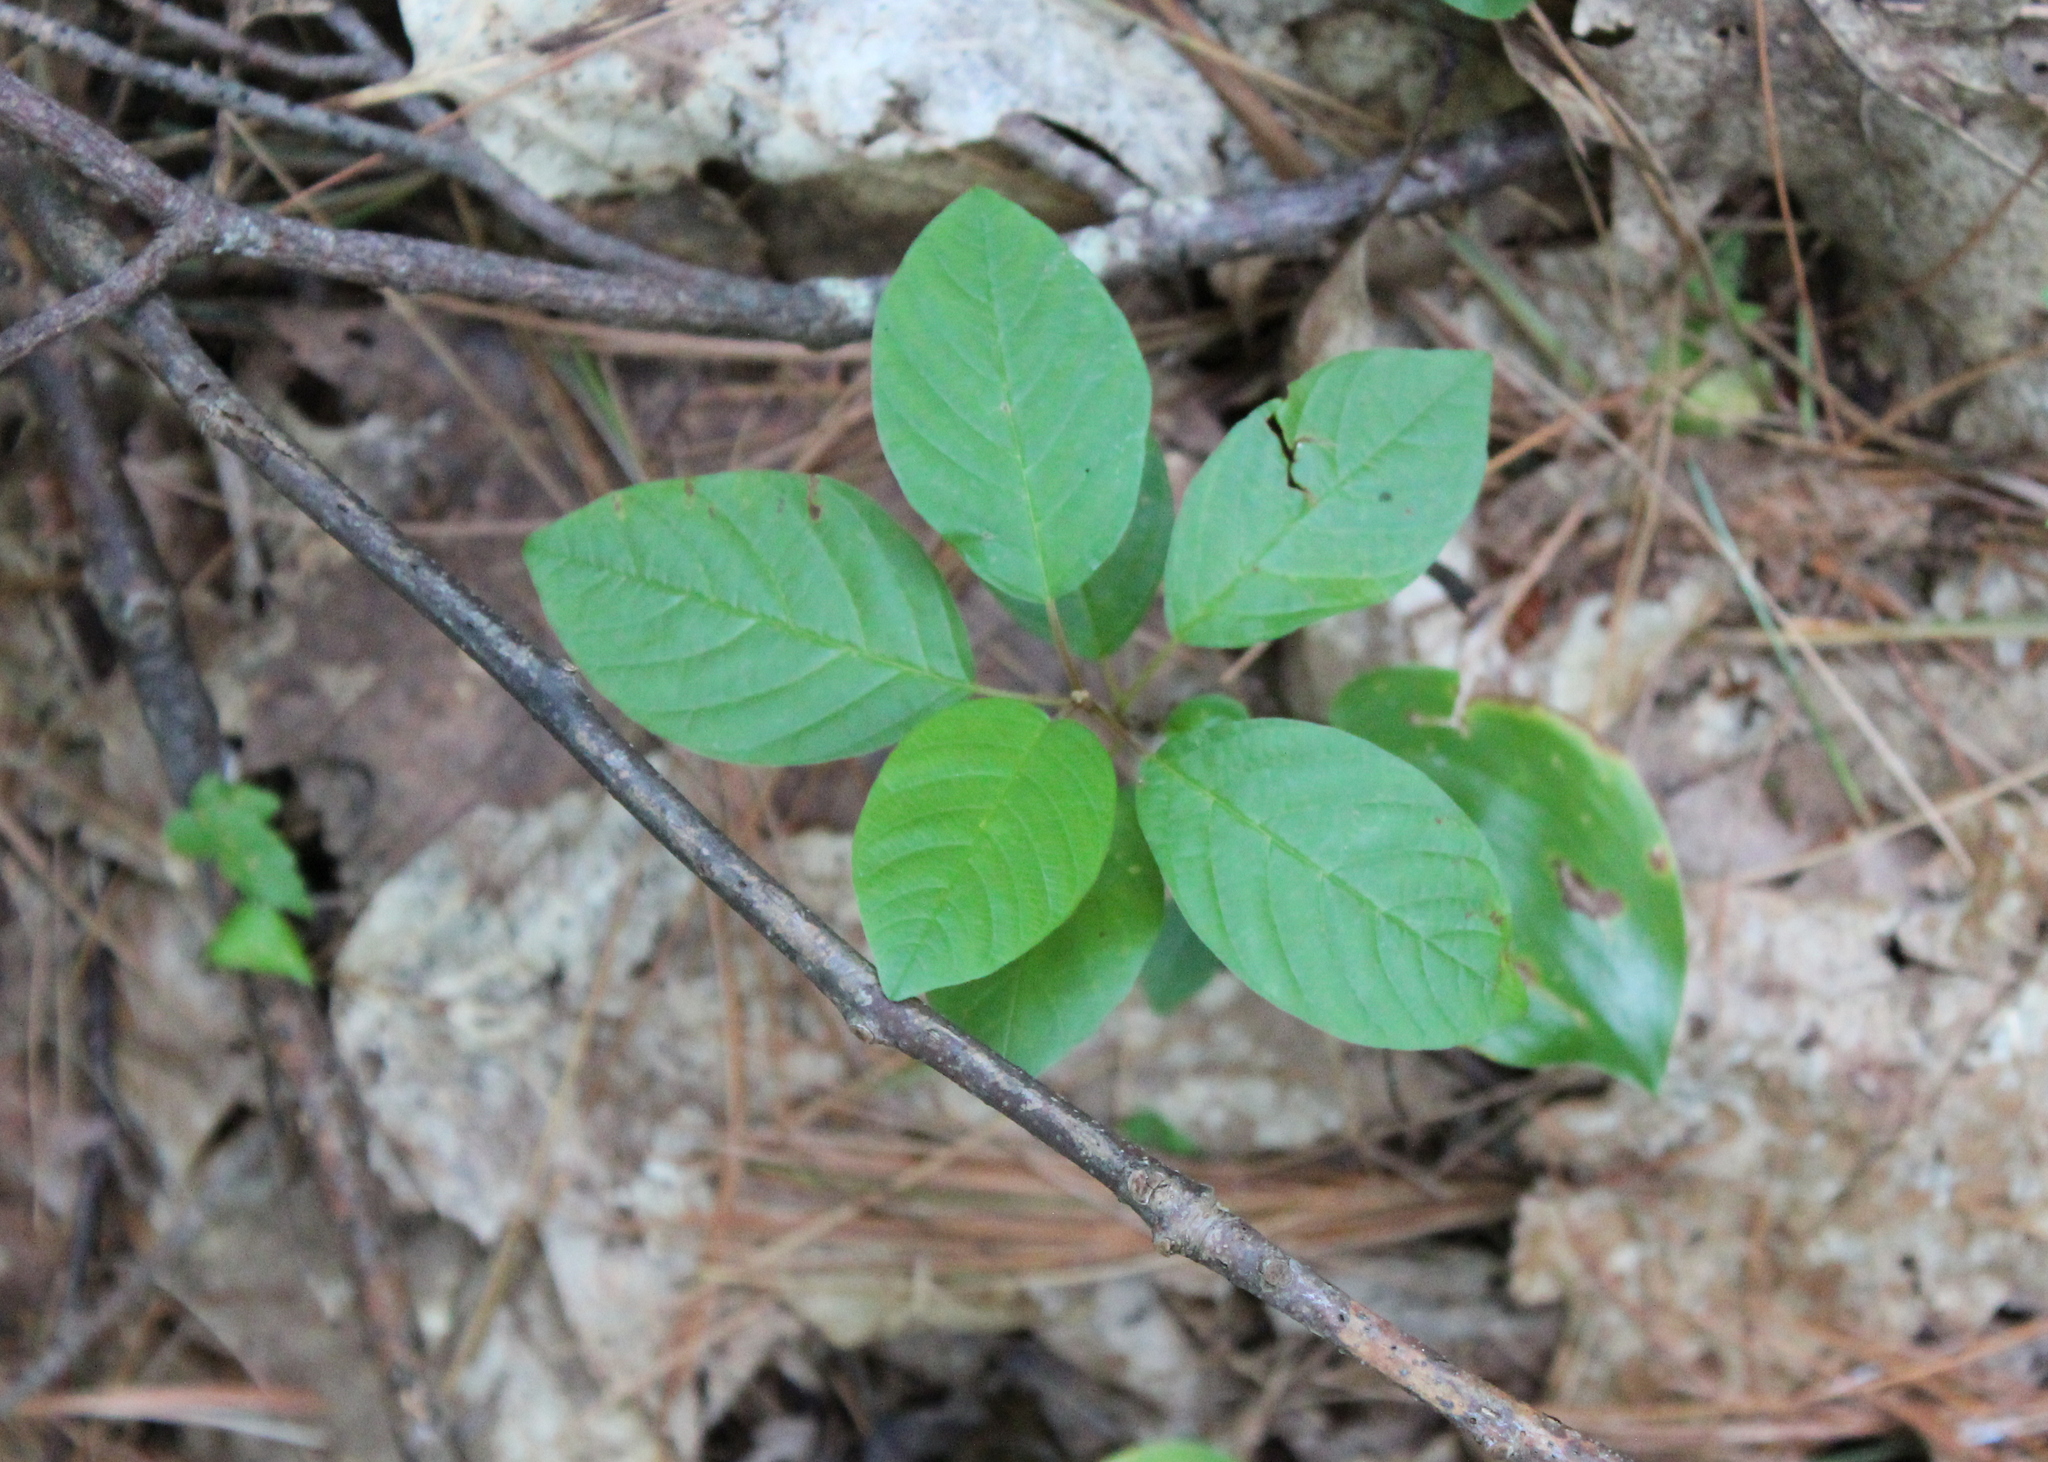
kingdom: Plantae
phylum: Tracheophyta
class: Magnoliopsida
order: Rosales
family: Rhamnaceae
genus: Frangula
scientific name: Frangula alnus
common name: Alder buckthorn
